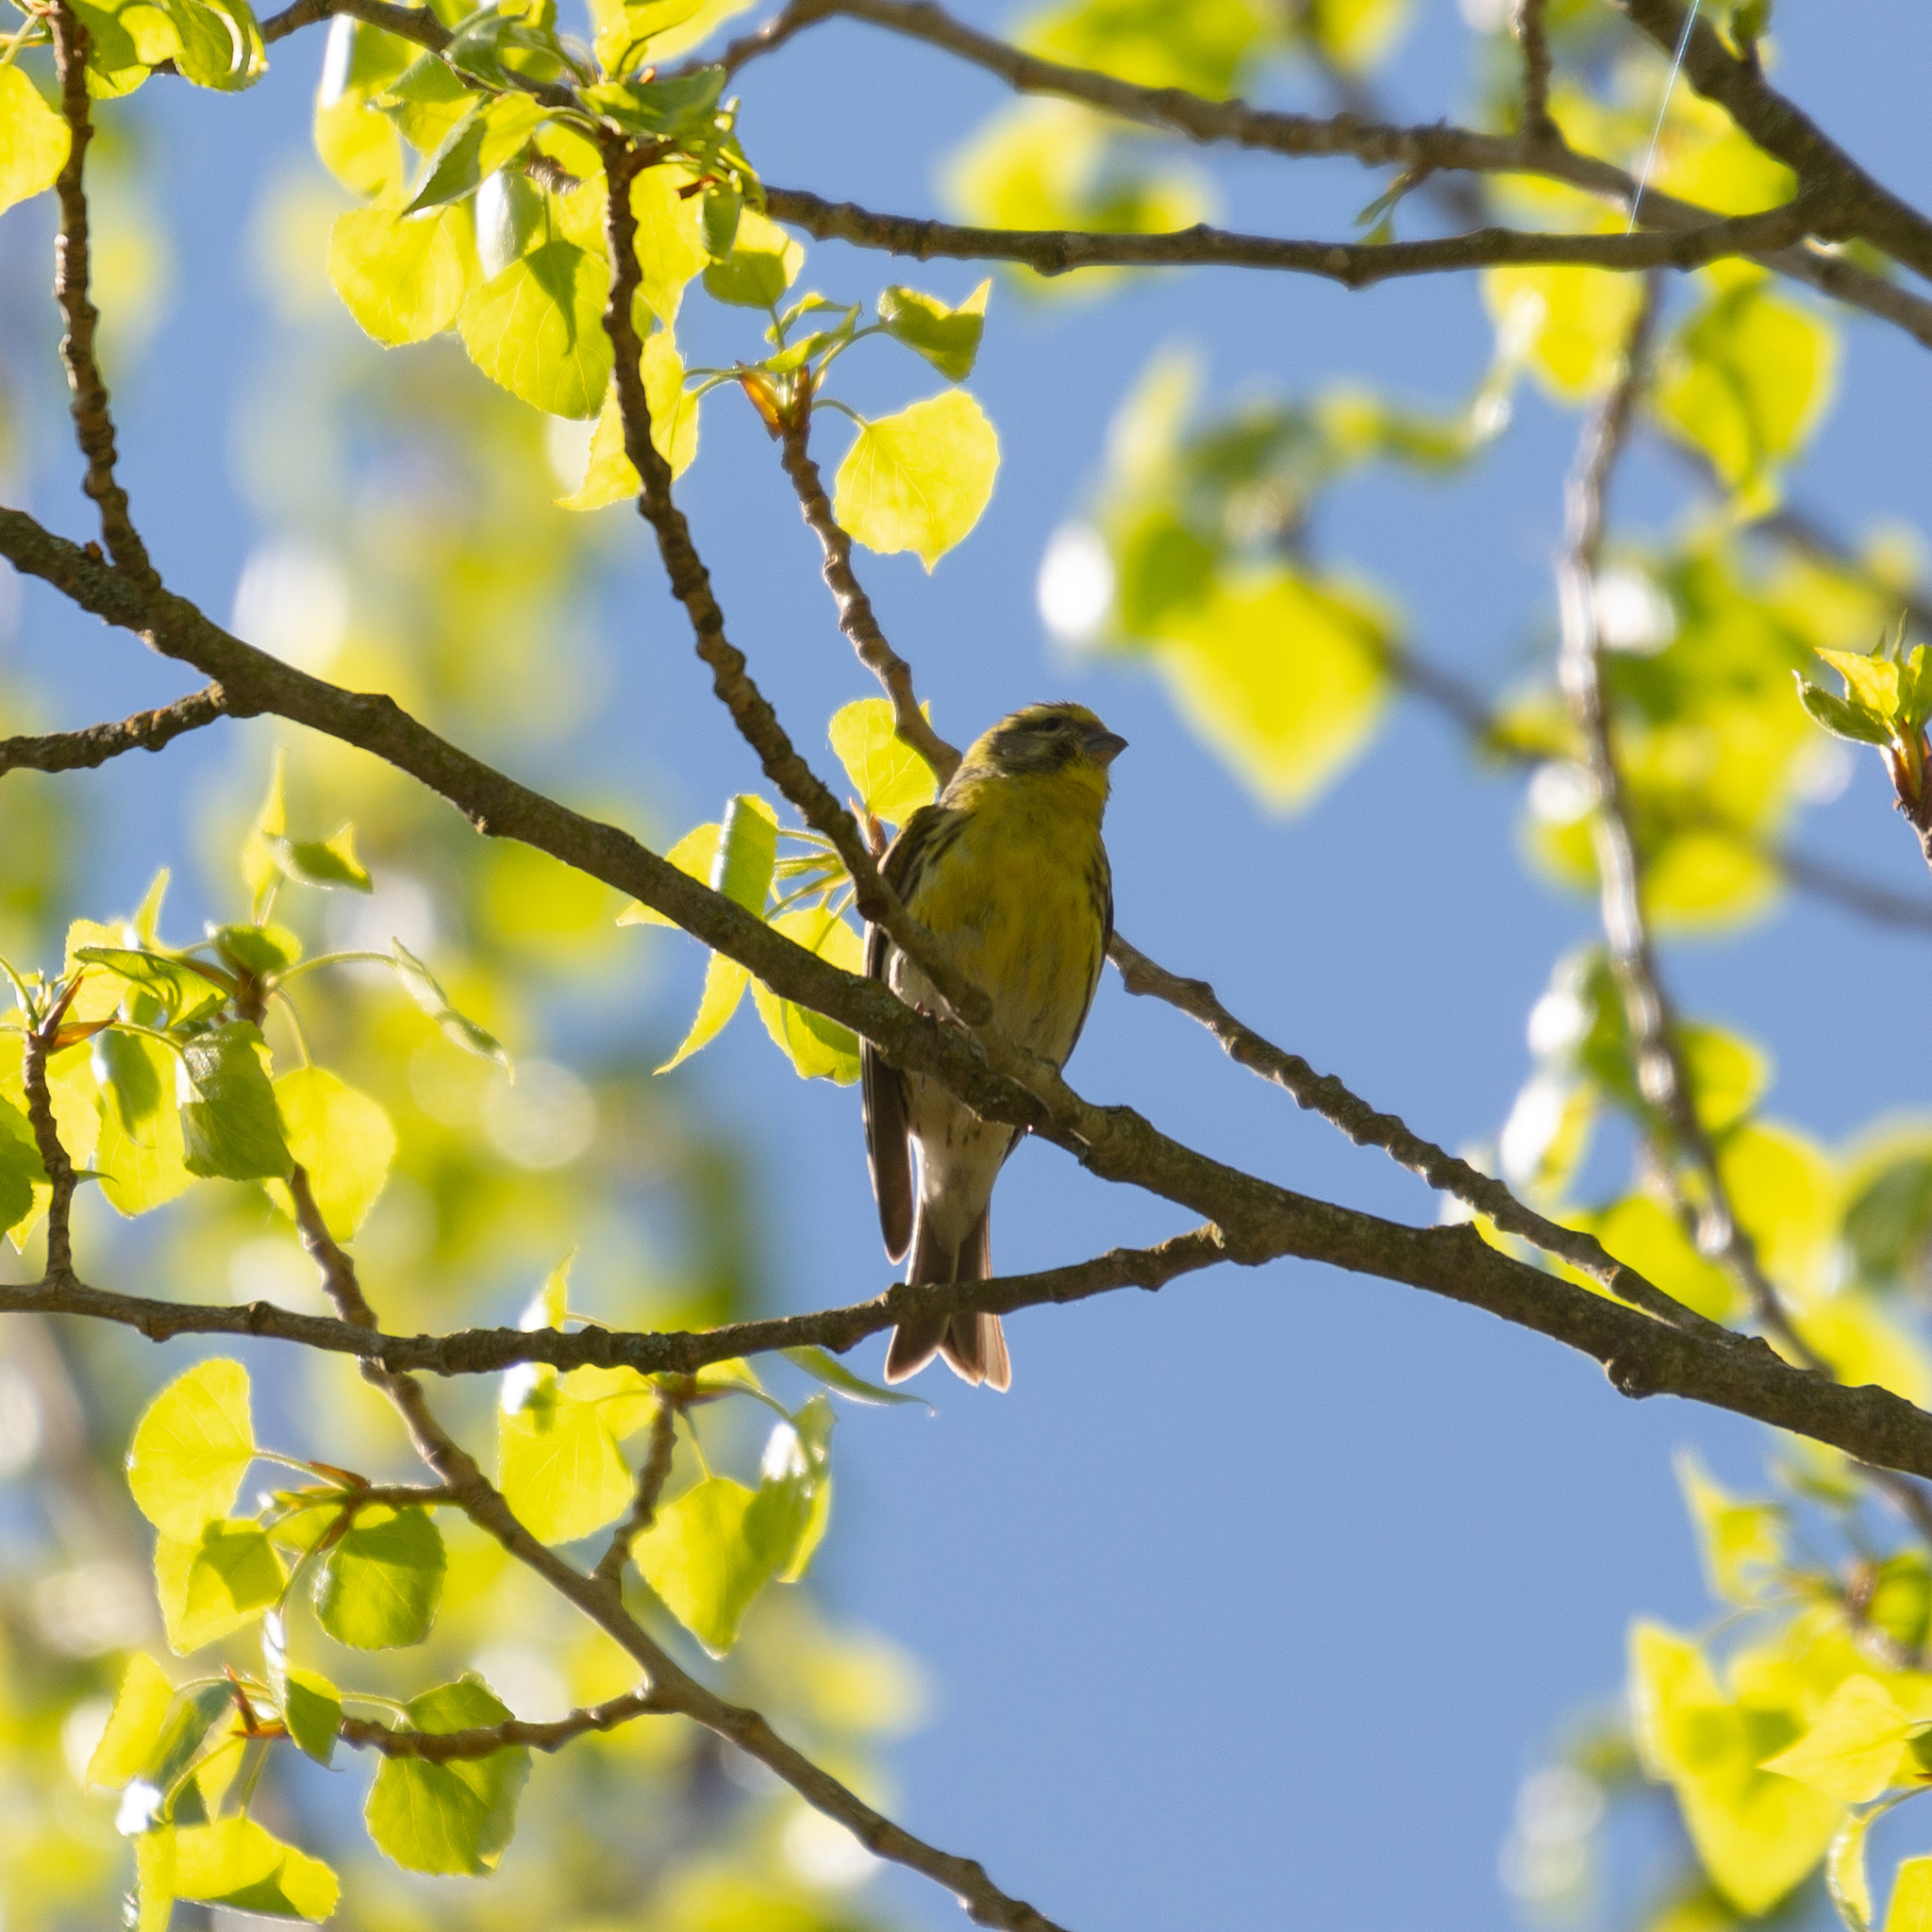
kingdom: Animalia
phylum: Chordata
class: Aves
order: Passeriformes
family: Fringillidae
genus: Serinus
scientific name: Serinus serinus
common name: European serin
